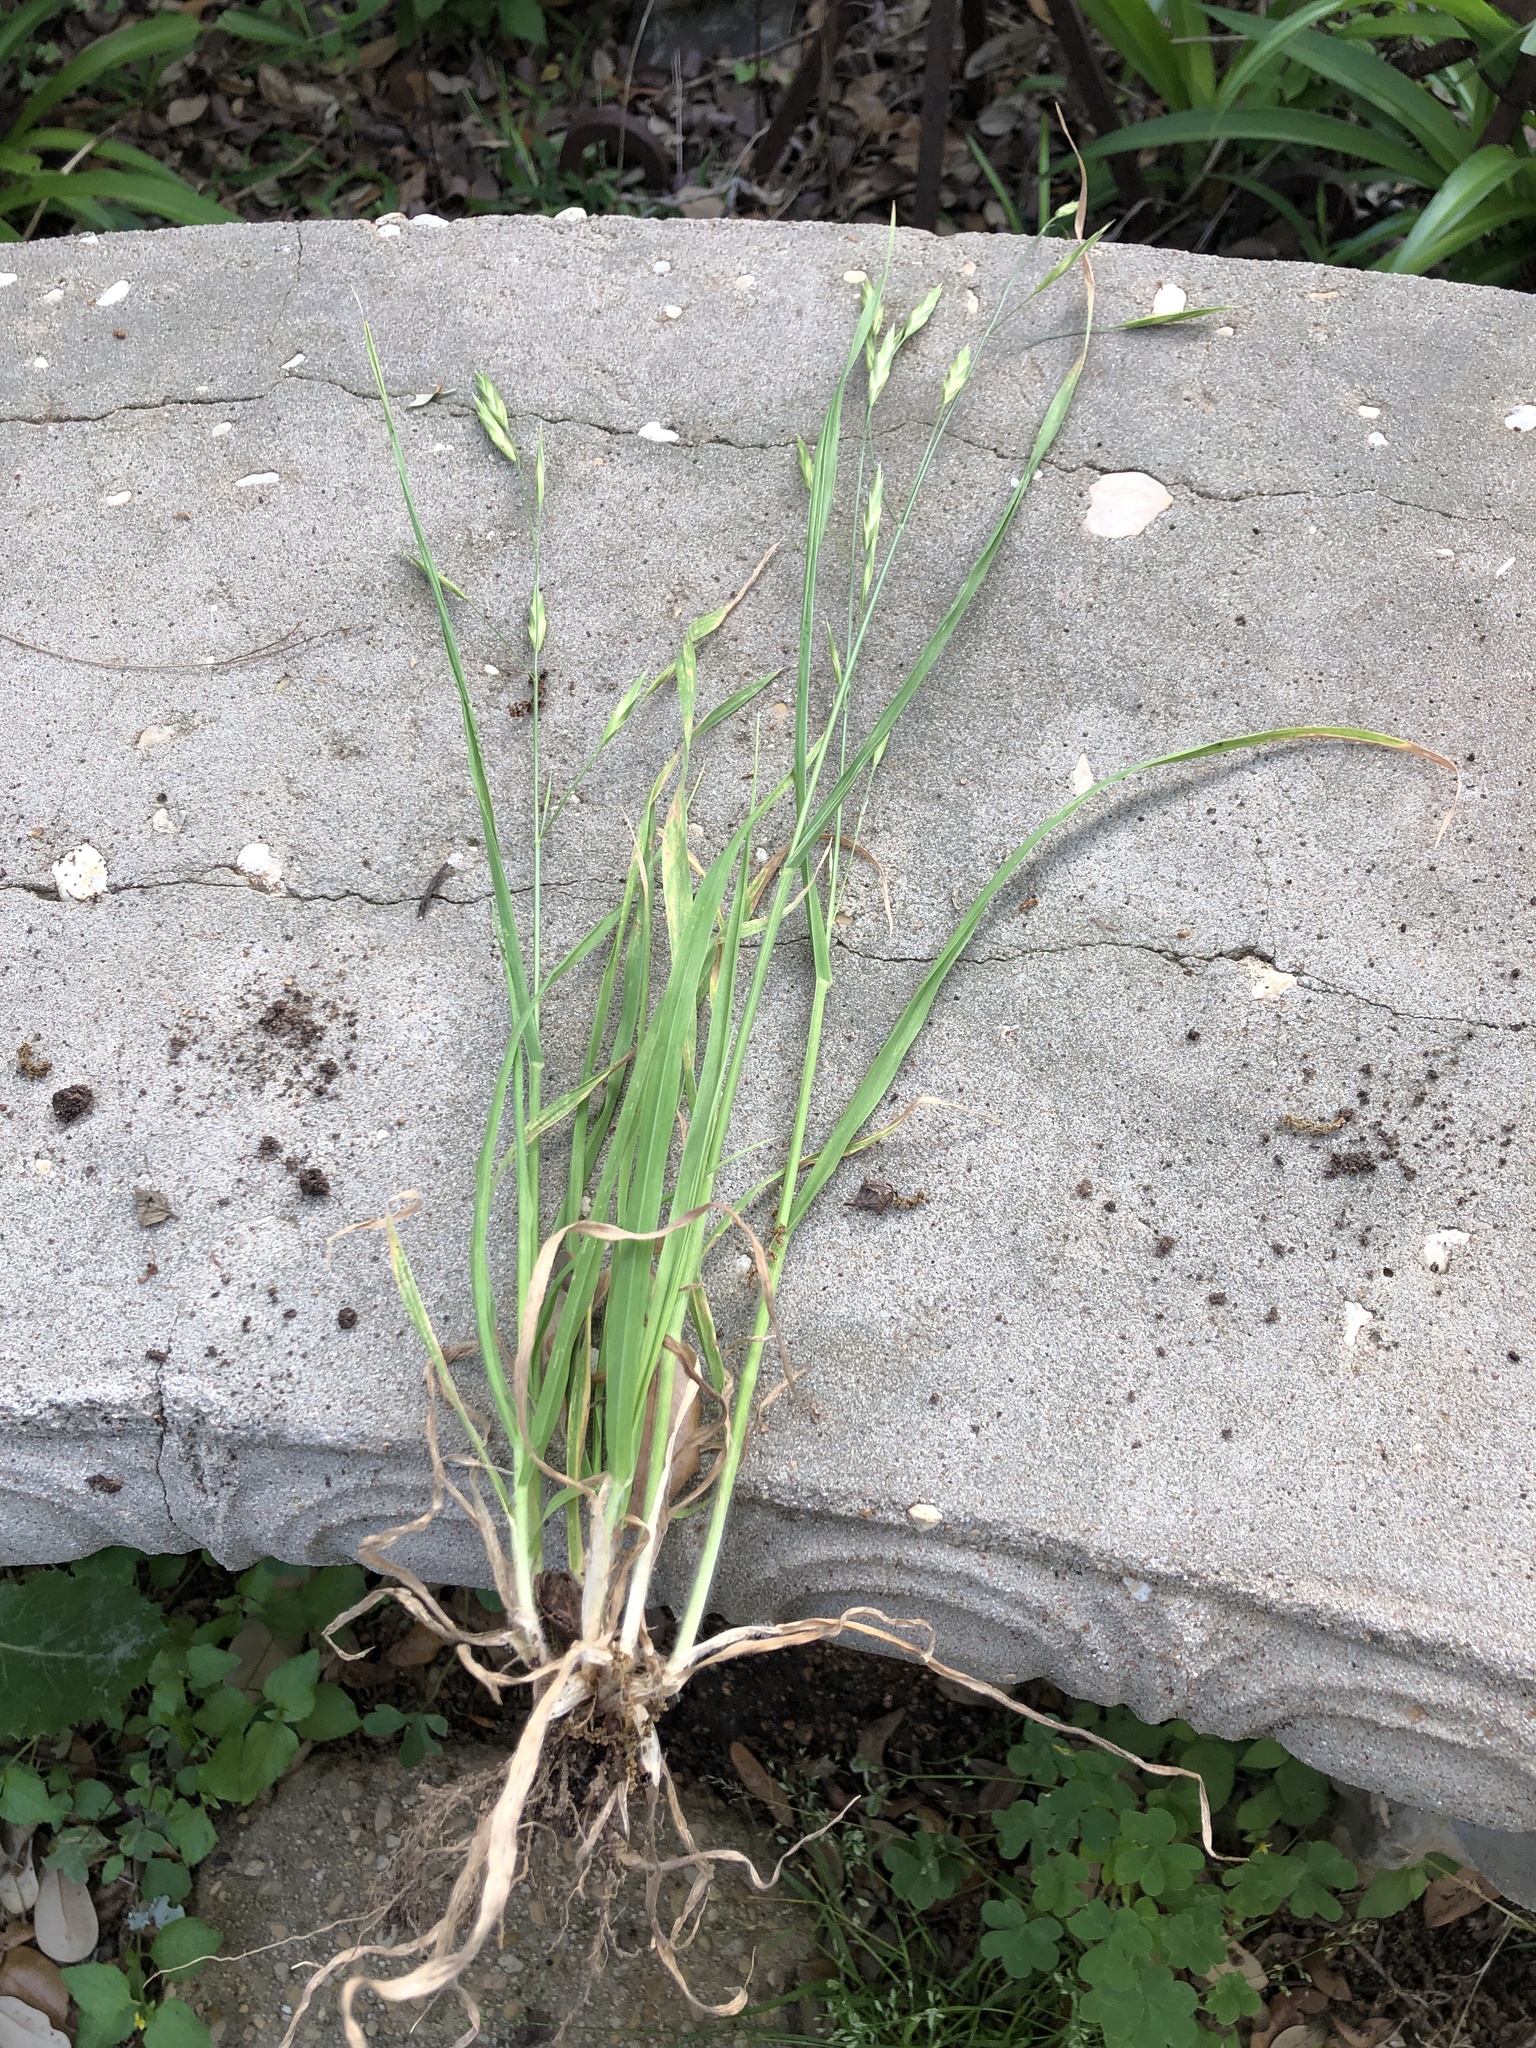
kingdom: Plantae
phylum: Tracheophyta
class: Liliopsida
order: Poales
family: Poaceae
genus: Bromus
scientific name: Bromus catharticus
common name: Rescuegrass
